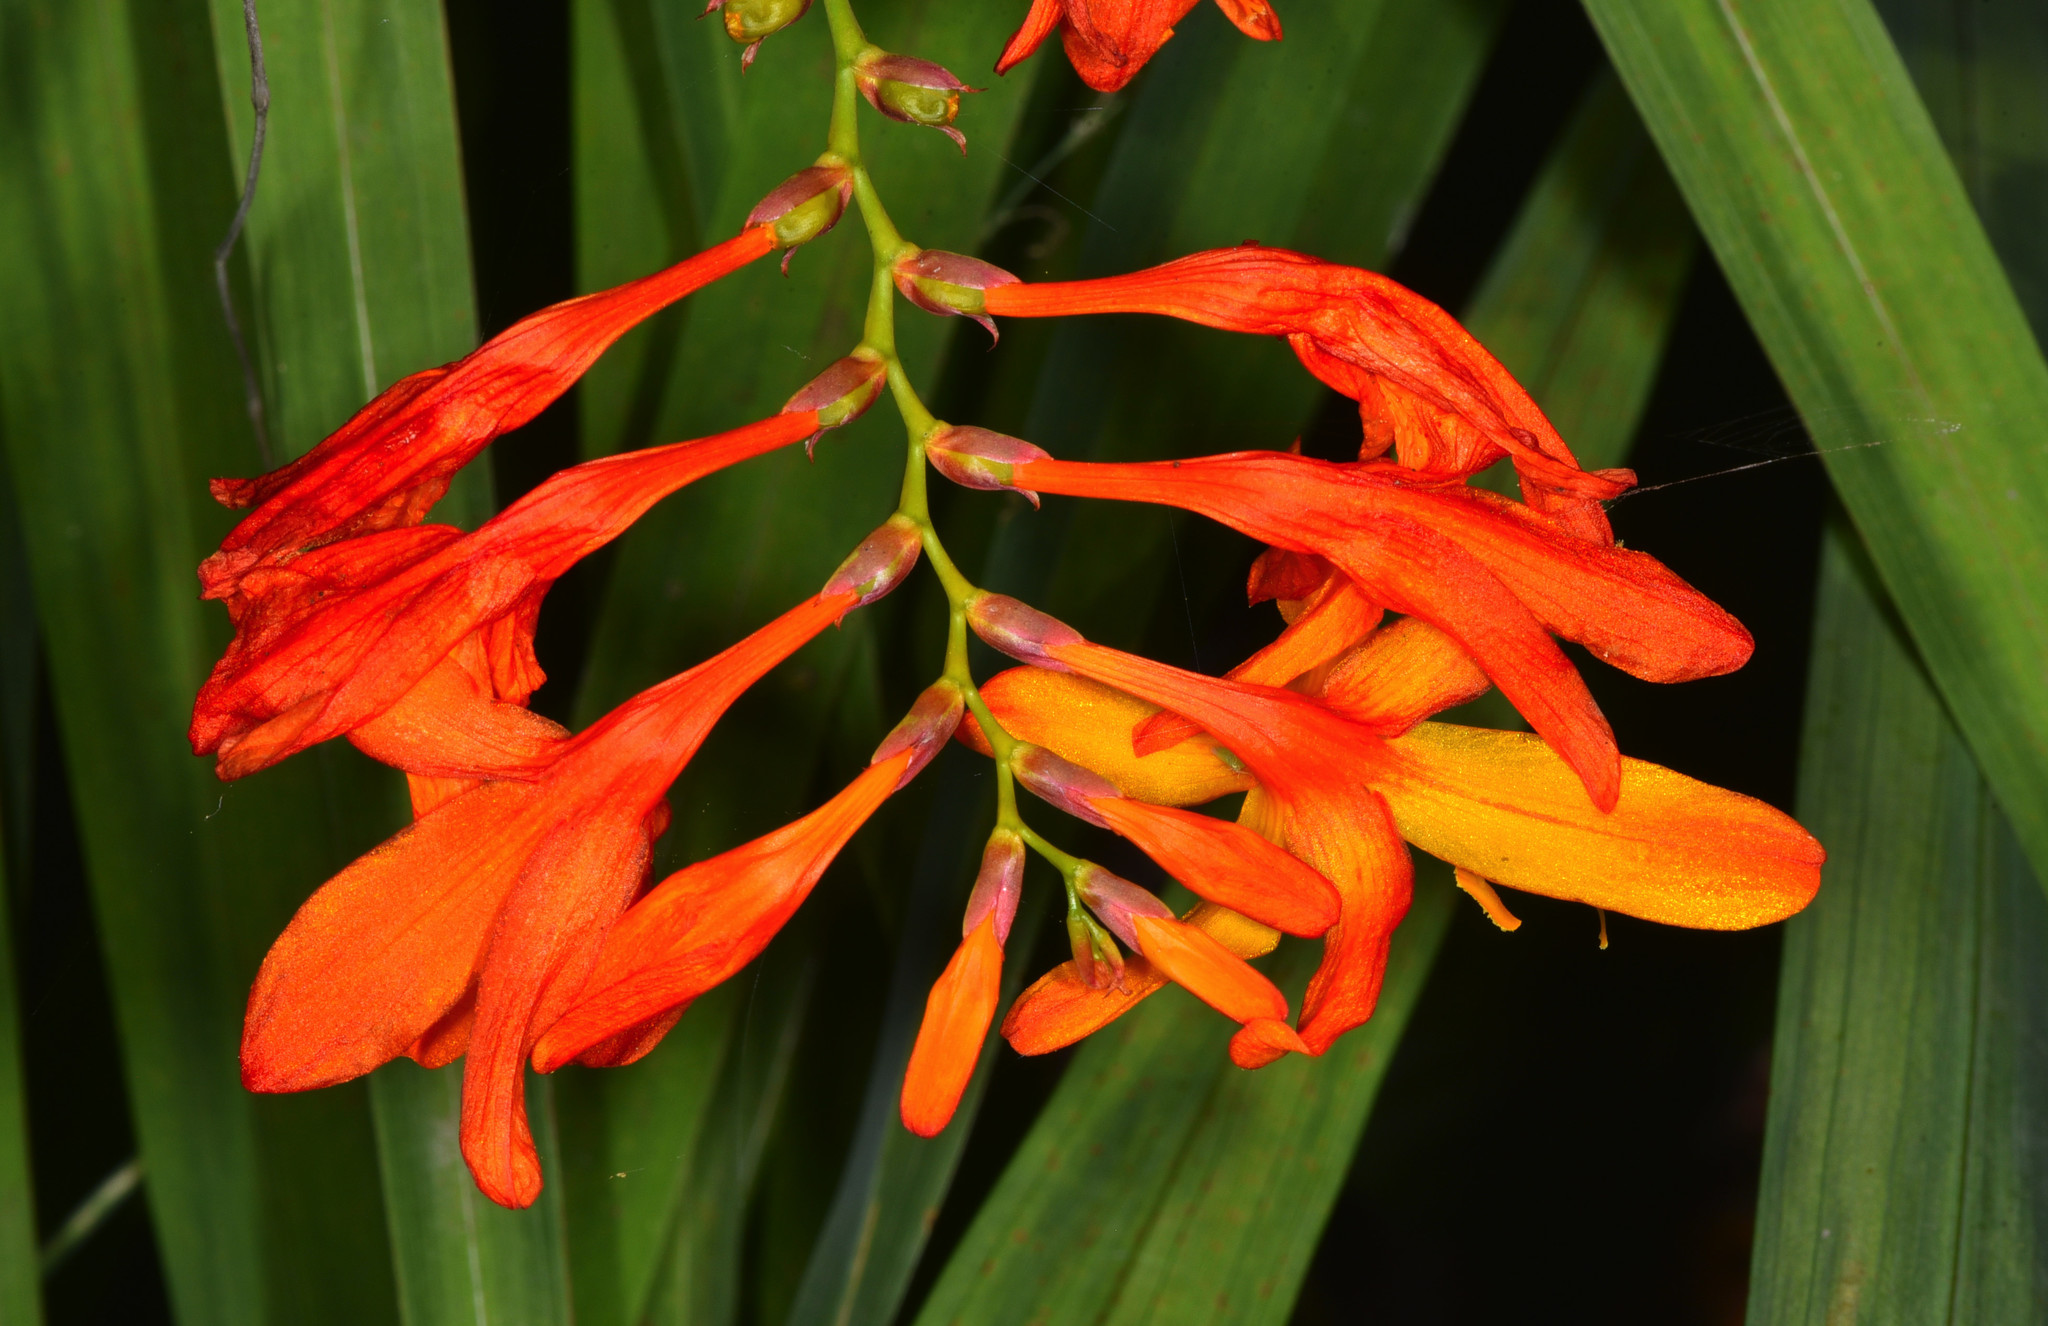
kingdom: Plantae
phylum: Tracheophyta
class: Liliopsida
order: Asparagales
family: Iridaceae
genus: Crocosmia
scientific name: Crocosmia crocosmiiflora
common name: Montbretia
